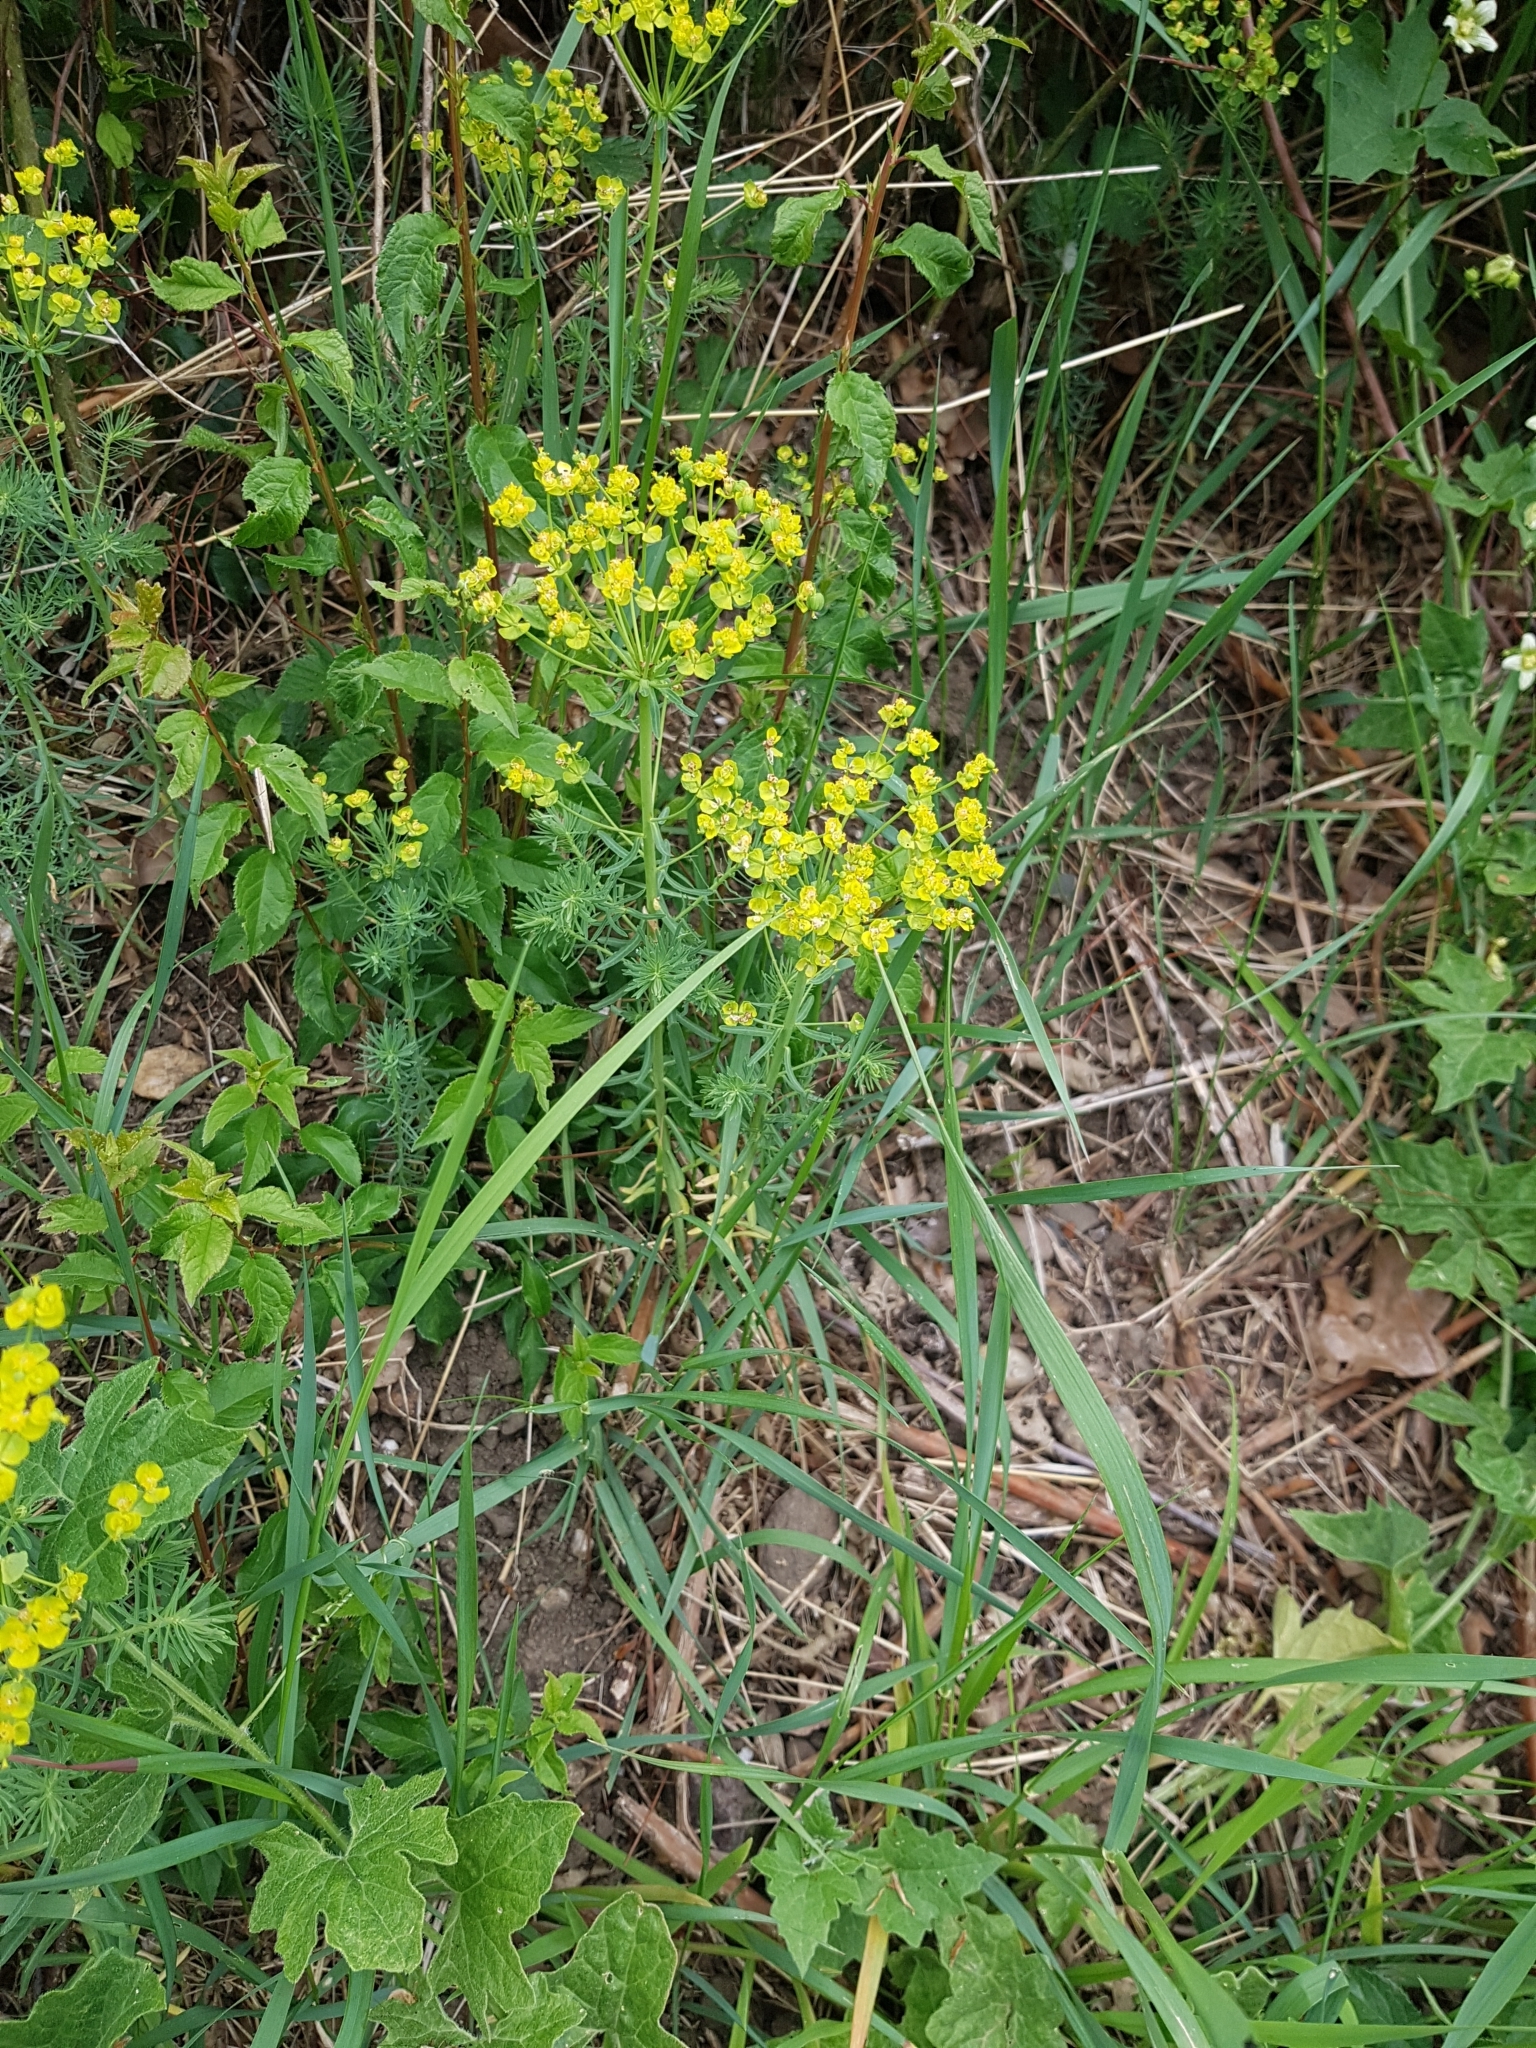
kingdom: Plantae
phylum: Tracheophyta
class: Magnoliopsida
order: Malpighiales
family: Euphorbiaceae
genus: Euphorbia
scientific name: Euphorbia cyparissias
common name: Cypress spurge
